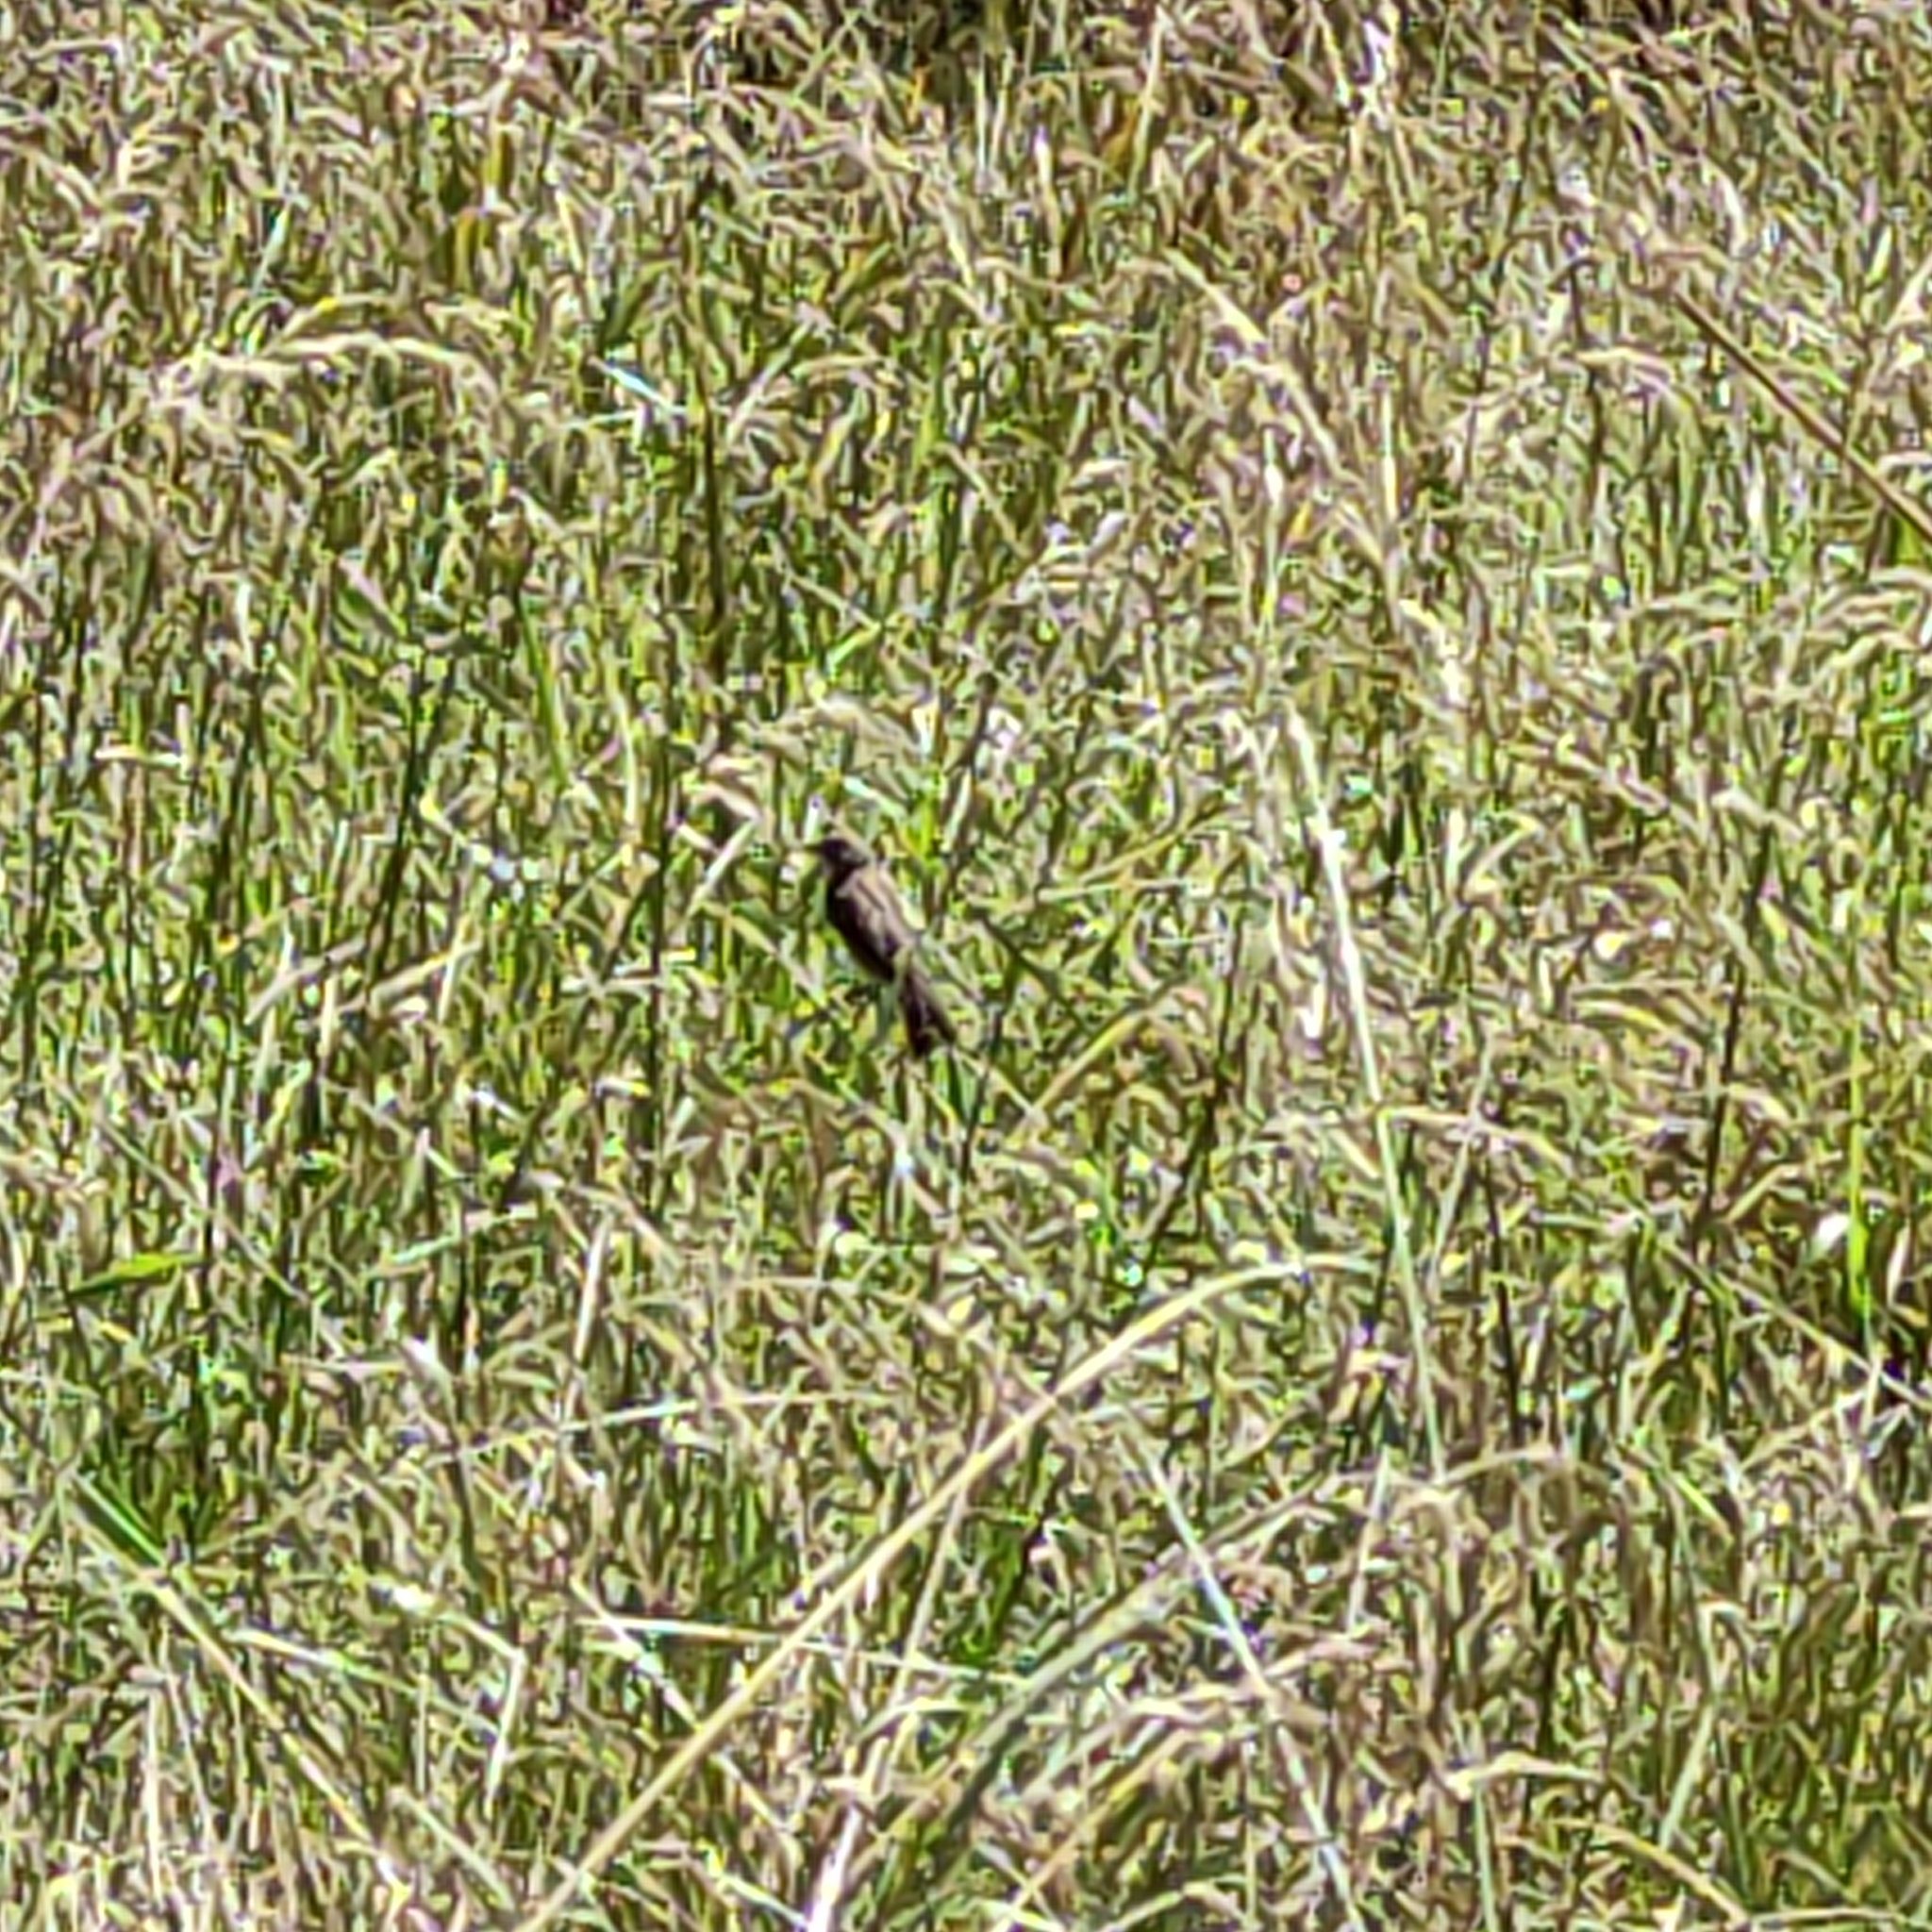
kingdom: Animalia
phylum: Chordata
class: Aves
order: Passeriformes
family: Passeridae
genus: Passer
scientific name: Passer domesticus
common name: House sparrow
